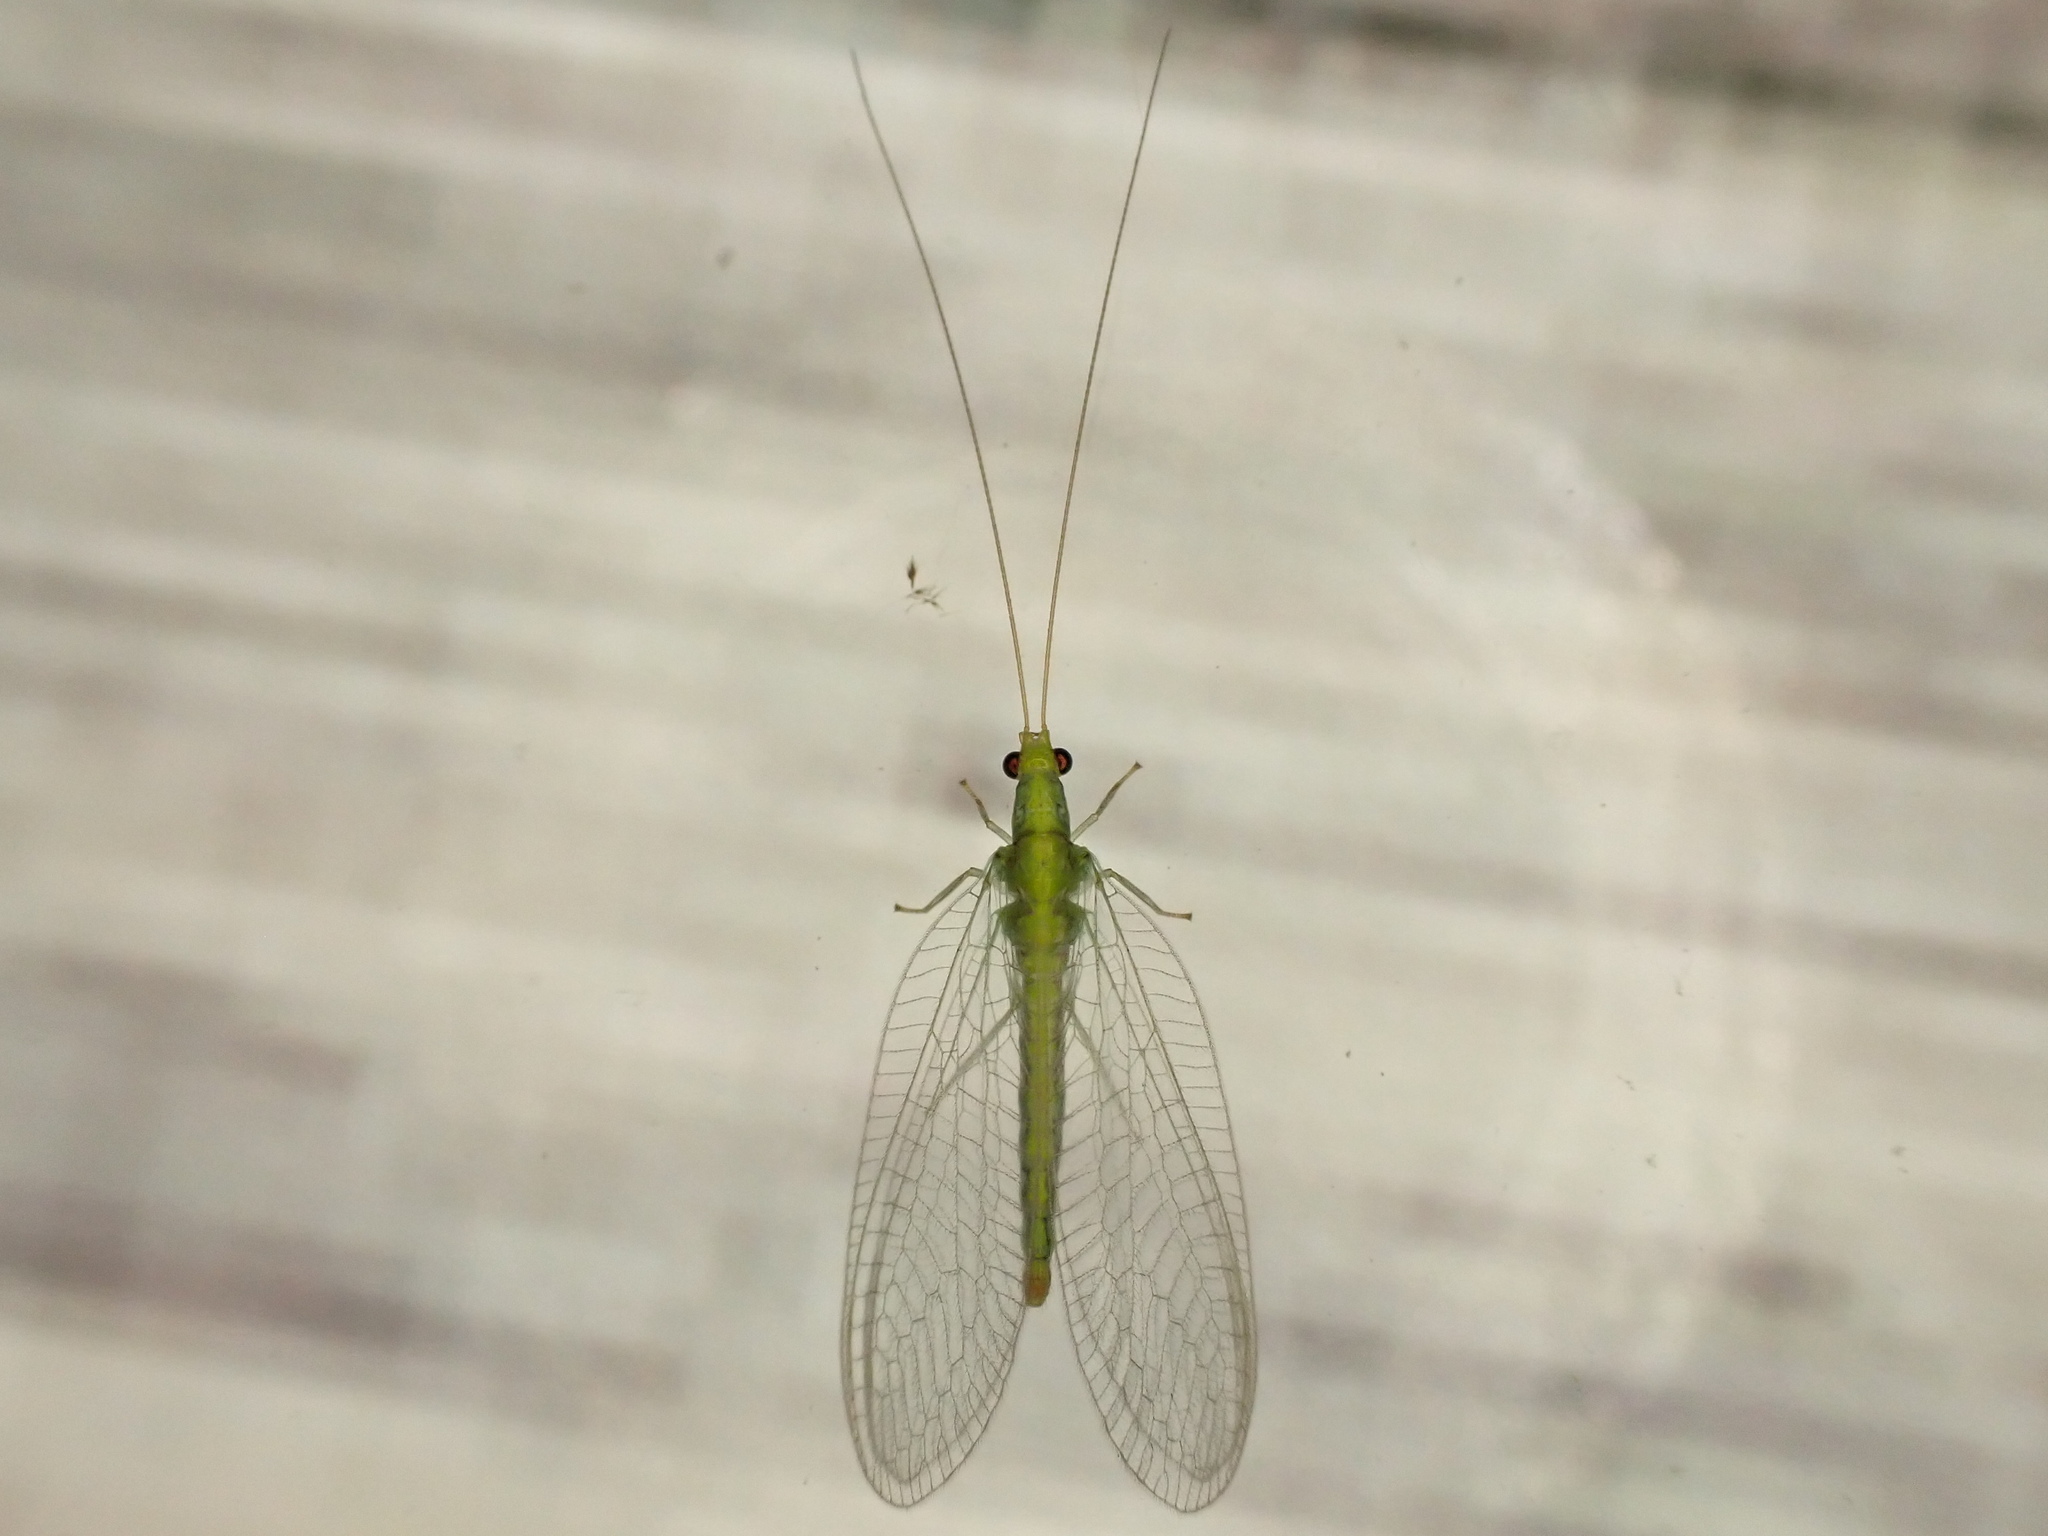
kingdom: Animalia
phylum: Arthropoda
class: Insecta
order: Neuroptera
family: Chrysopidae
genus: Mallada
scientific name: Mallada basalis
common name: Green lacewing
